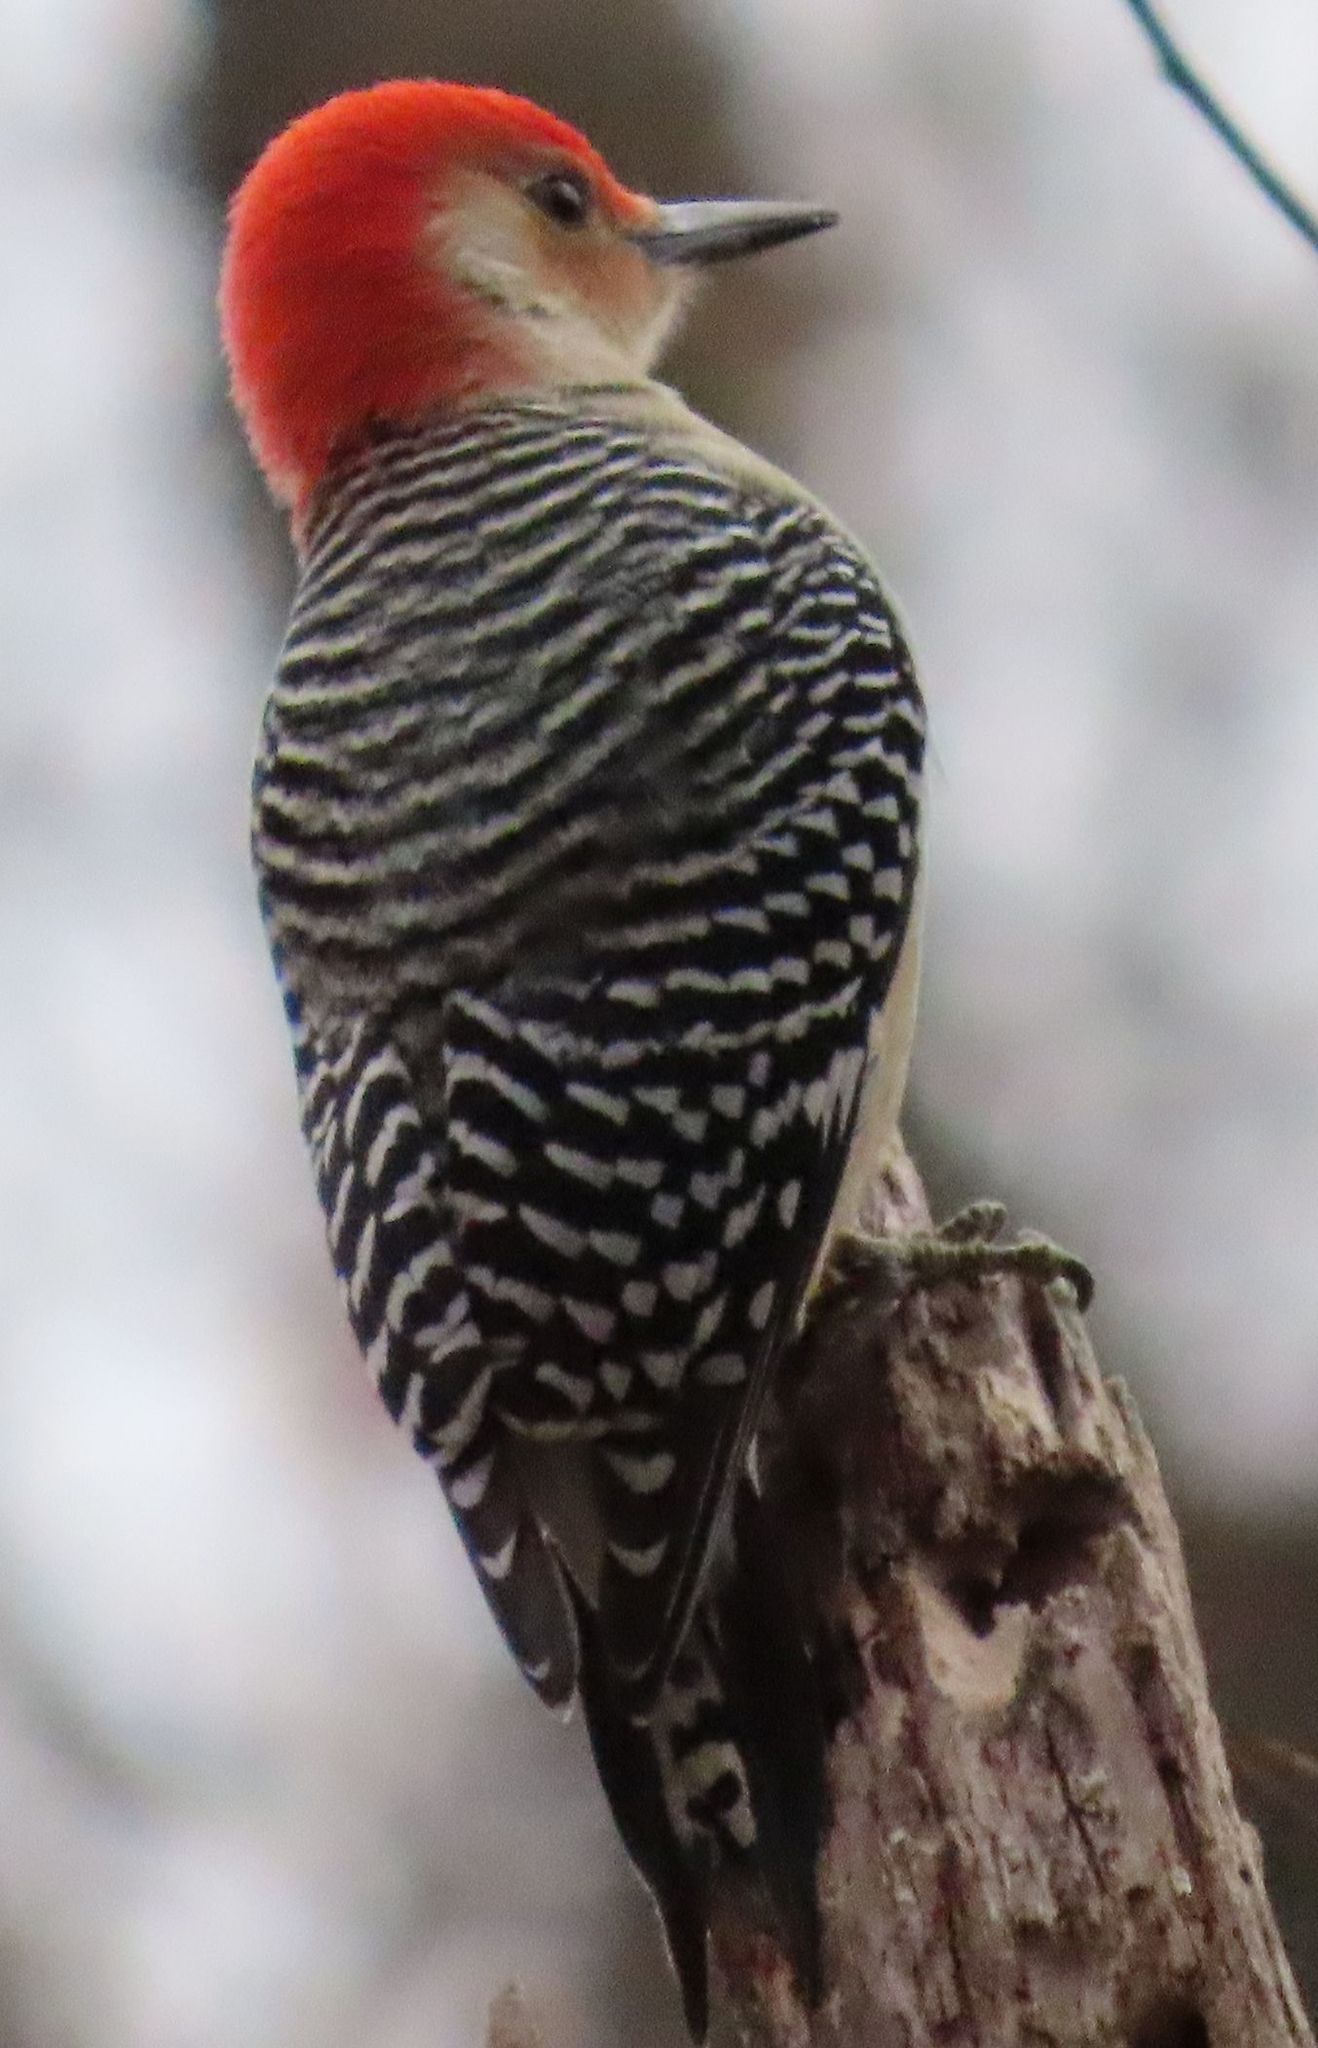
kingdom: Animalia
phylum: Chordata
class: Aves
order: Piciformes
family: Picidae
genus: Melanerpes
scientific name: Melanerpes carolinus
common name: Red-bellied woodpecker
